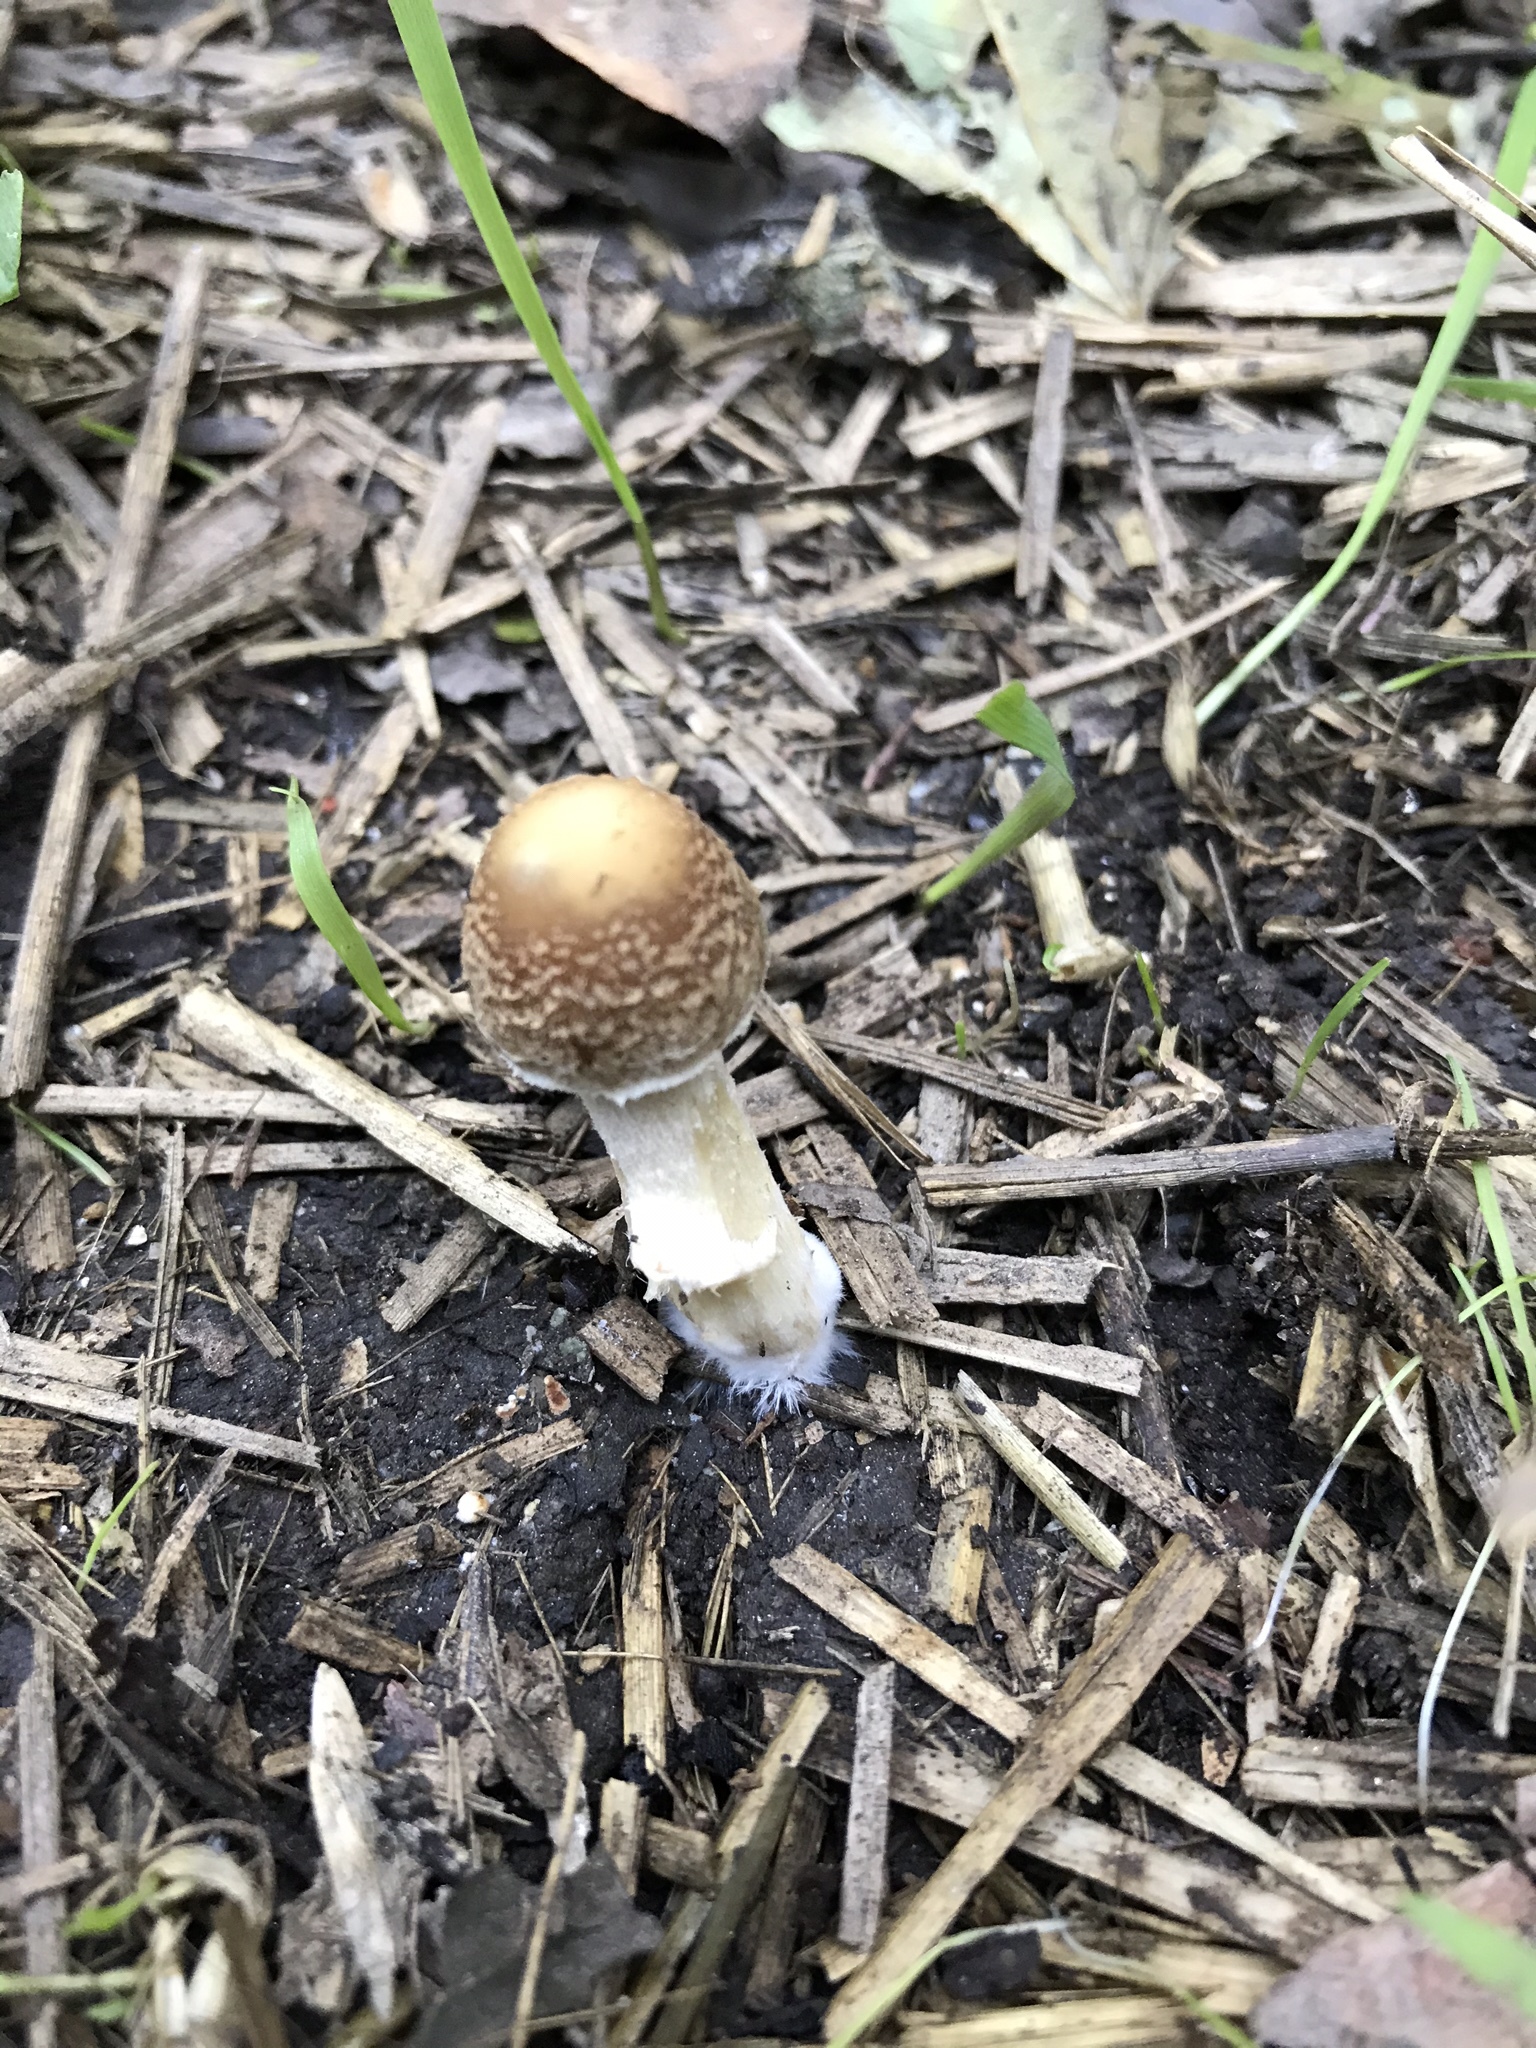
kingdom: Fungi
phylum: Basidiomycota
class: Agaricomycetes
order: Agaricales
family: Psathyrellaceae
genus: Candolleomyces
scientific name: Candolleomyces candolleanus
